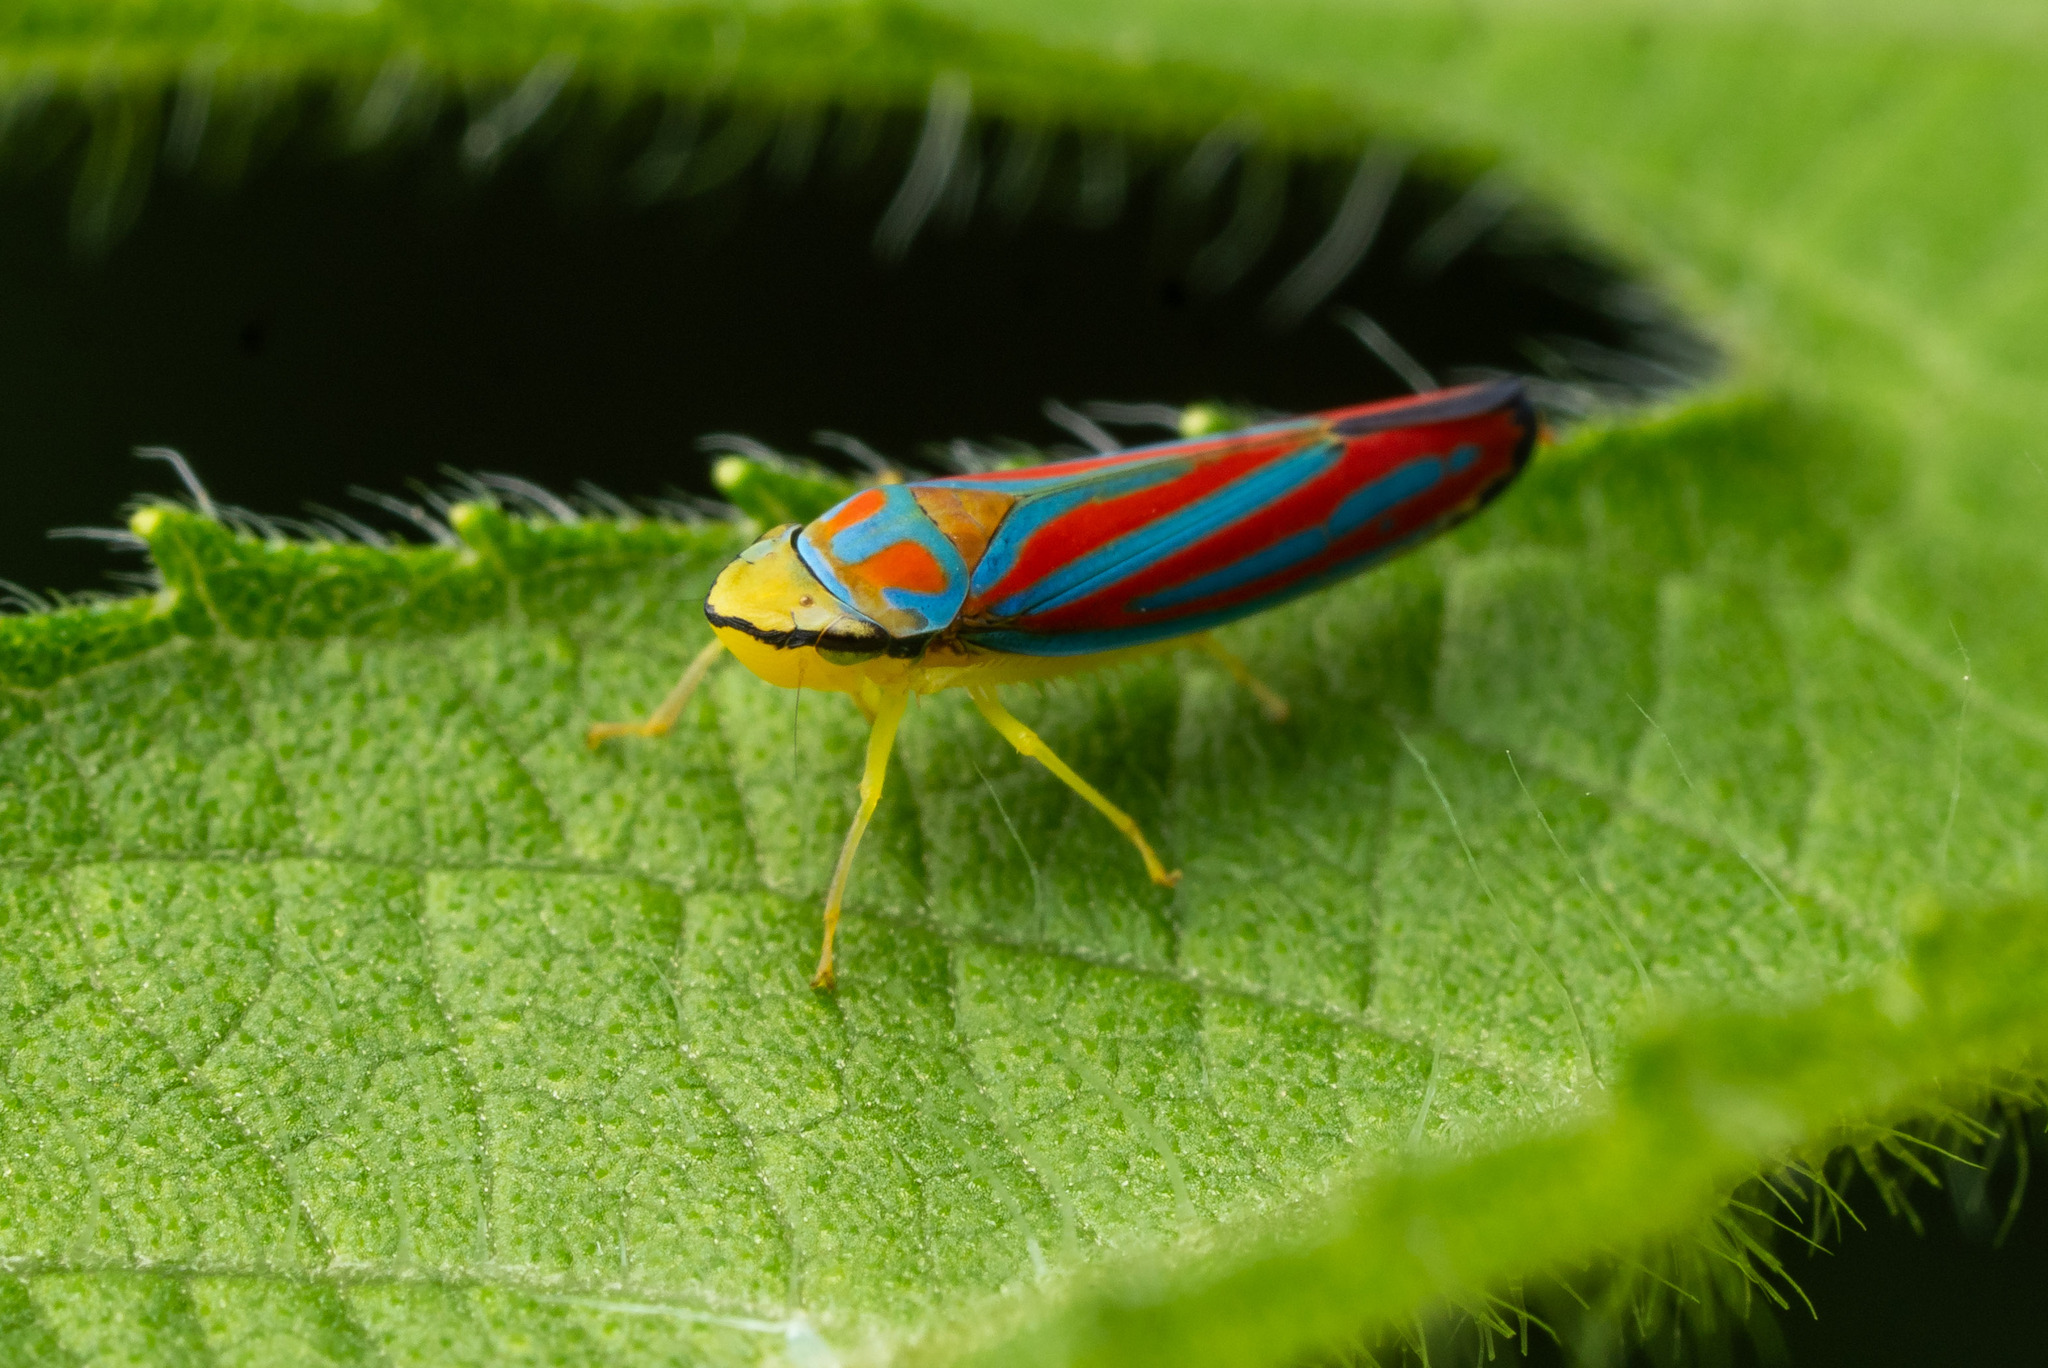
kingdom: Animalia
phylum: Arthropoda
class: Insecta
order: Hemiptera
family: Cicadellidae
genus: Graphocephala
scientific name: Graphocephala coccinea
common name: Candy-striped leafhopper
